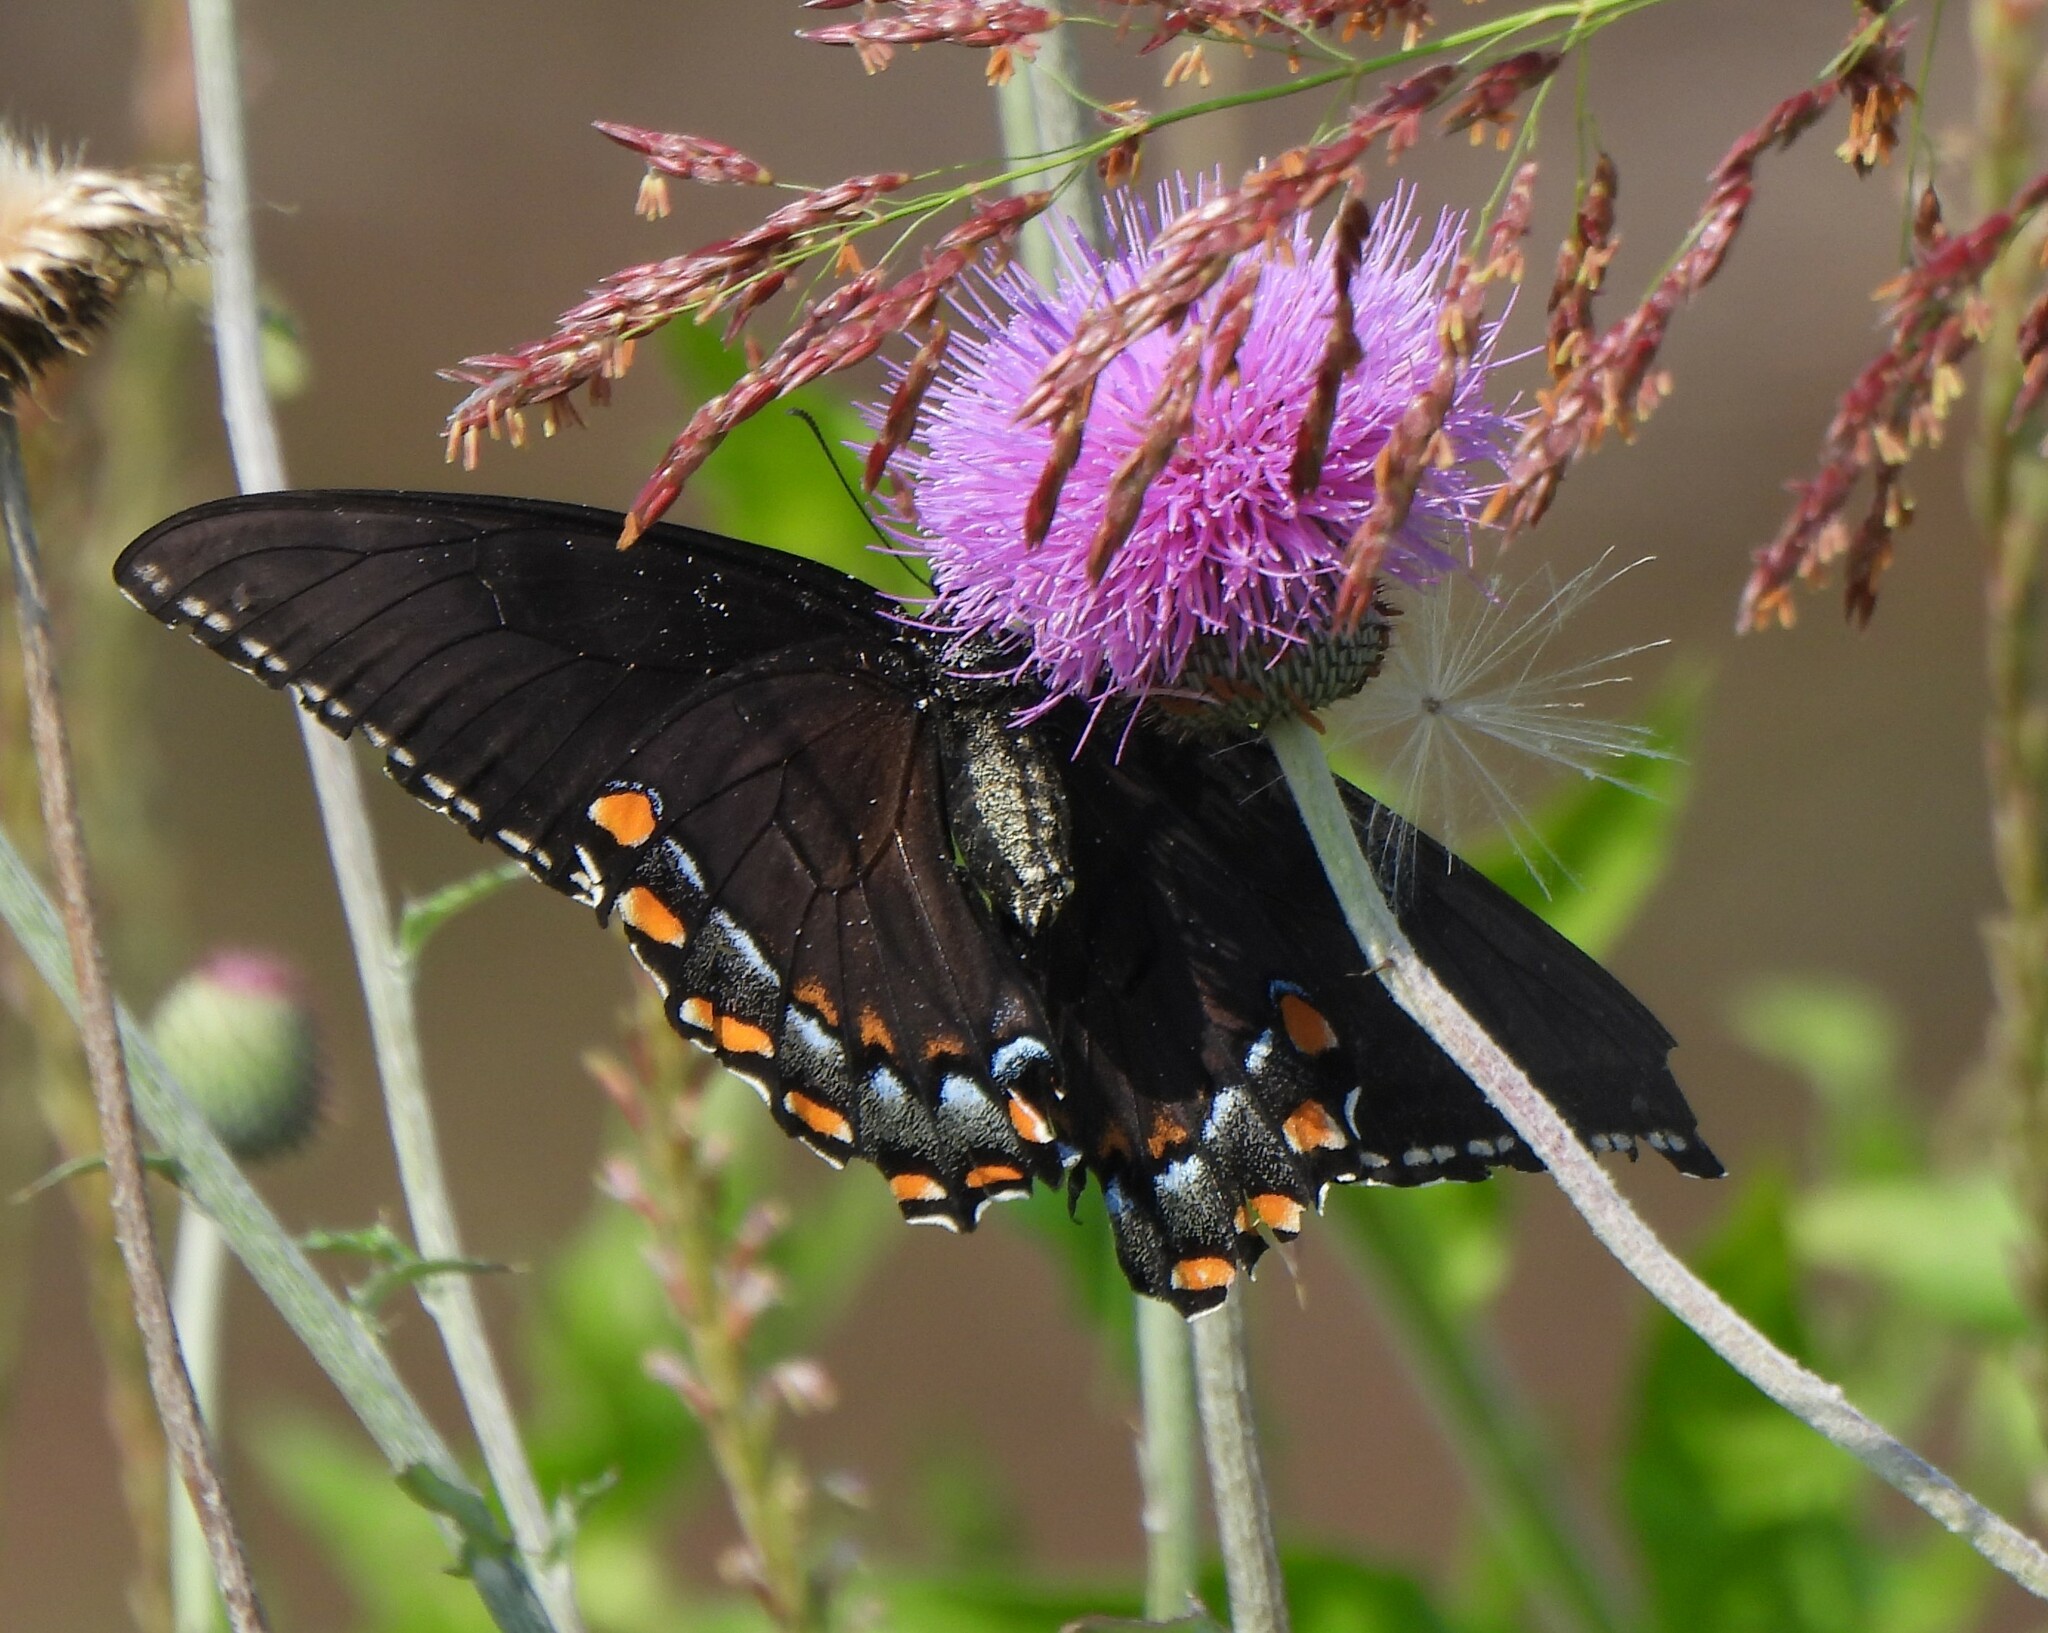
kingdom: Animalia
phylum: Arthropoda
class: Insecta
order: Lepidoptera
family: Papilionidae
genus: Papilio
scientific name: Papilio glaucus
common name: Tiger swallowtail
